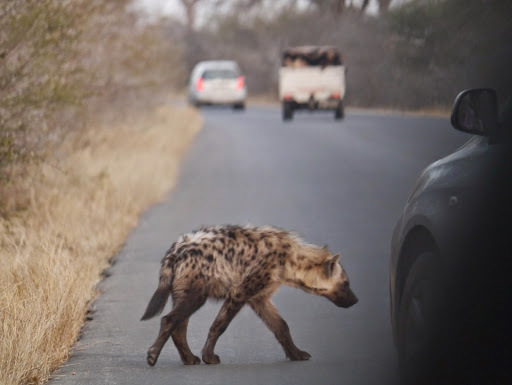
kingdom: Animalia
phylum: Chordata
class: Mammalia
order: Carnivora
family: Hyaenidae
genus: Crocuta
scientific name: Crocuta crocuta
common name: Spotted hyaena
